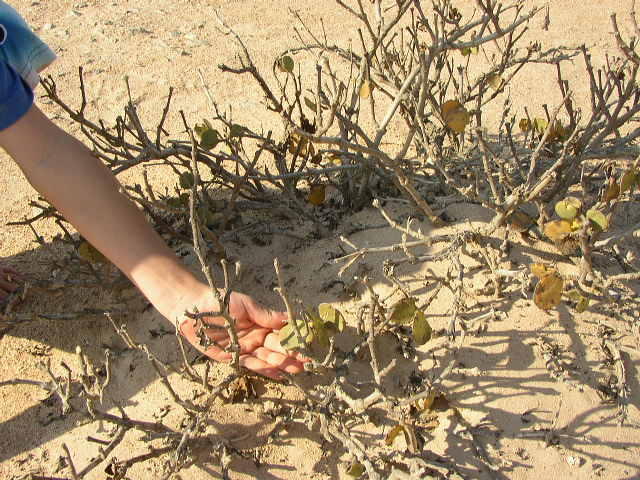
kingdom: Plantae
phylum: Tracheophyta
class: Magnoliopsida
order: Zygophyllales
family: Zygophyllaceae
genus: Tetraena
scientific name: Tetraena stapfii
